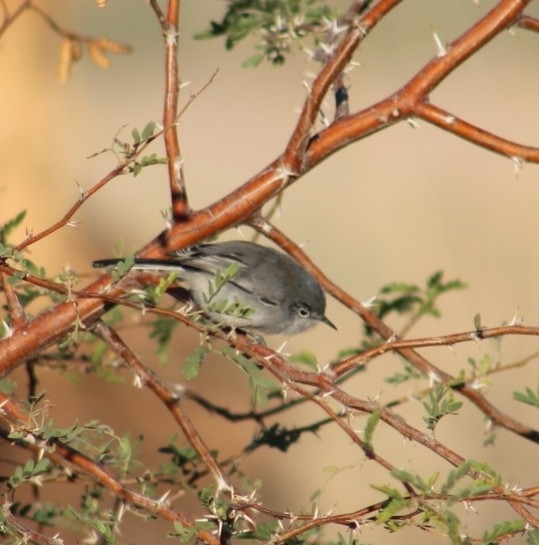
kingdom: Animalia
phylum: Chordata
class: Aves
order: Passeriformes
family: Polioptilidae
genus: Polioptila
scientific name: Polioptila caerulea
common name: Blue-gray gnatcatcher
